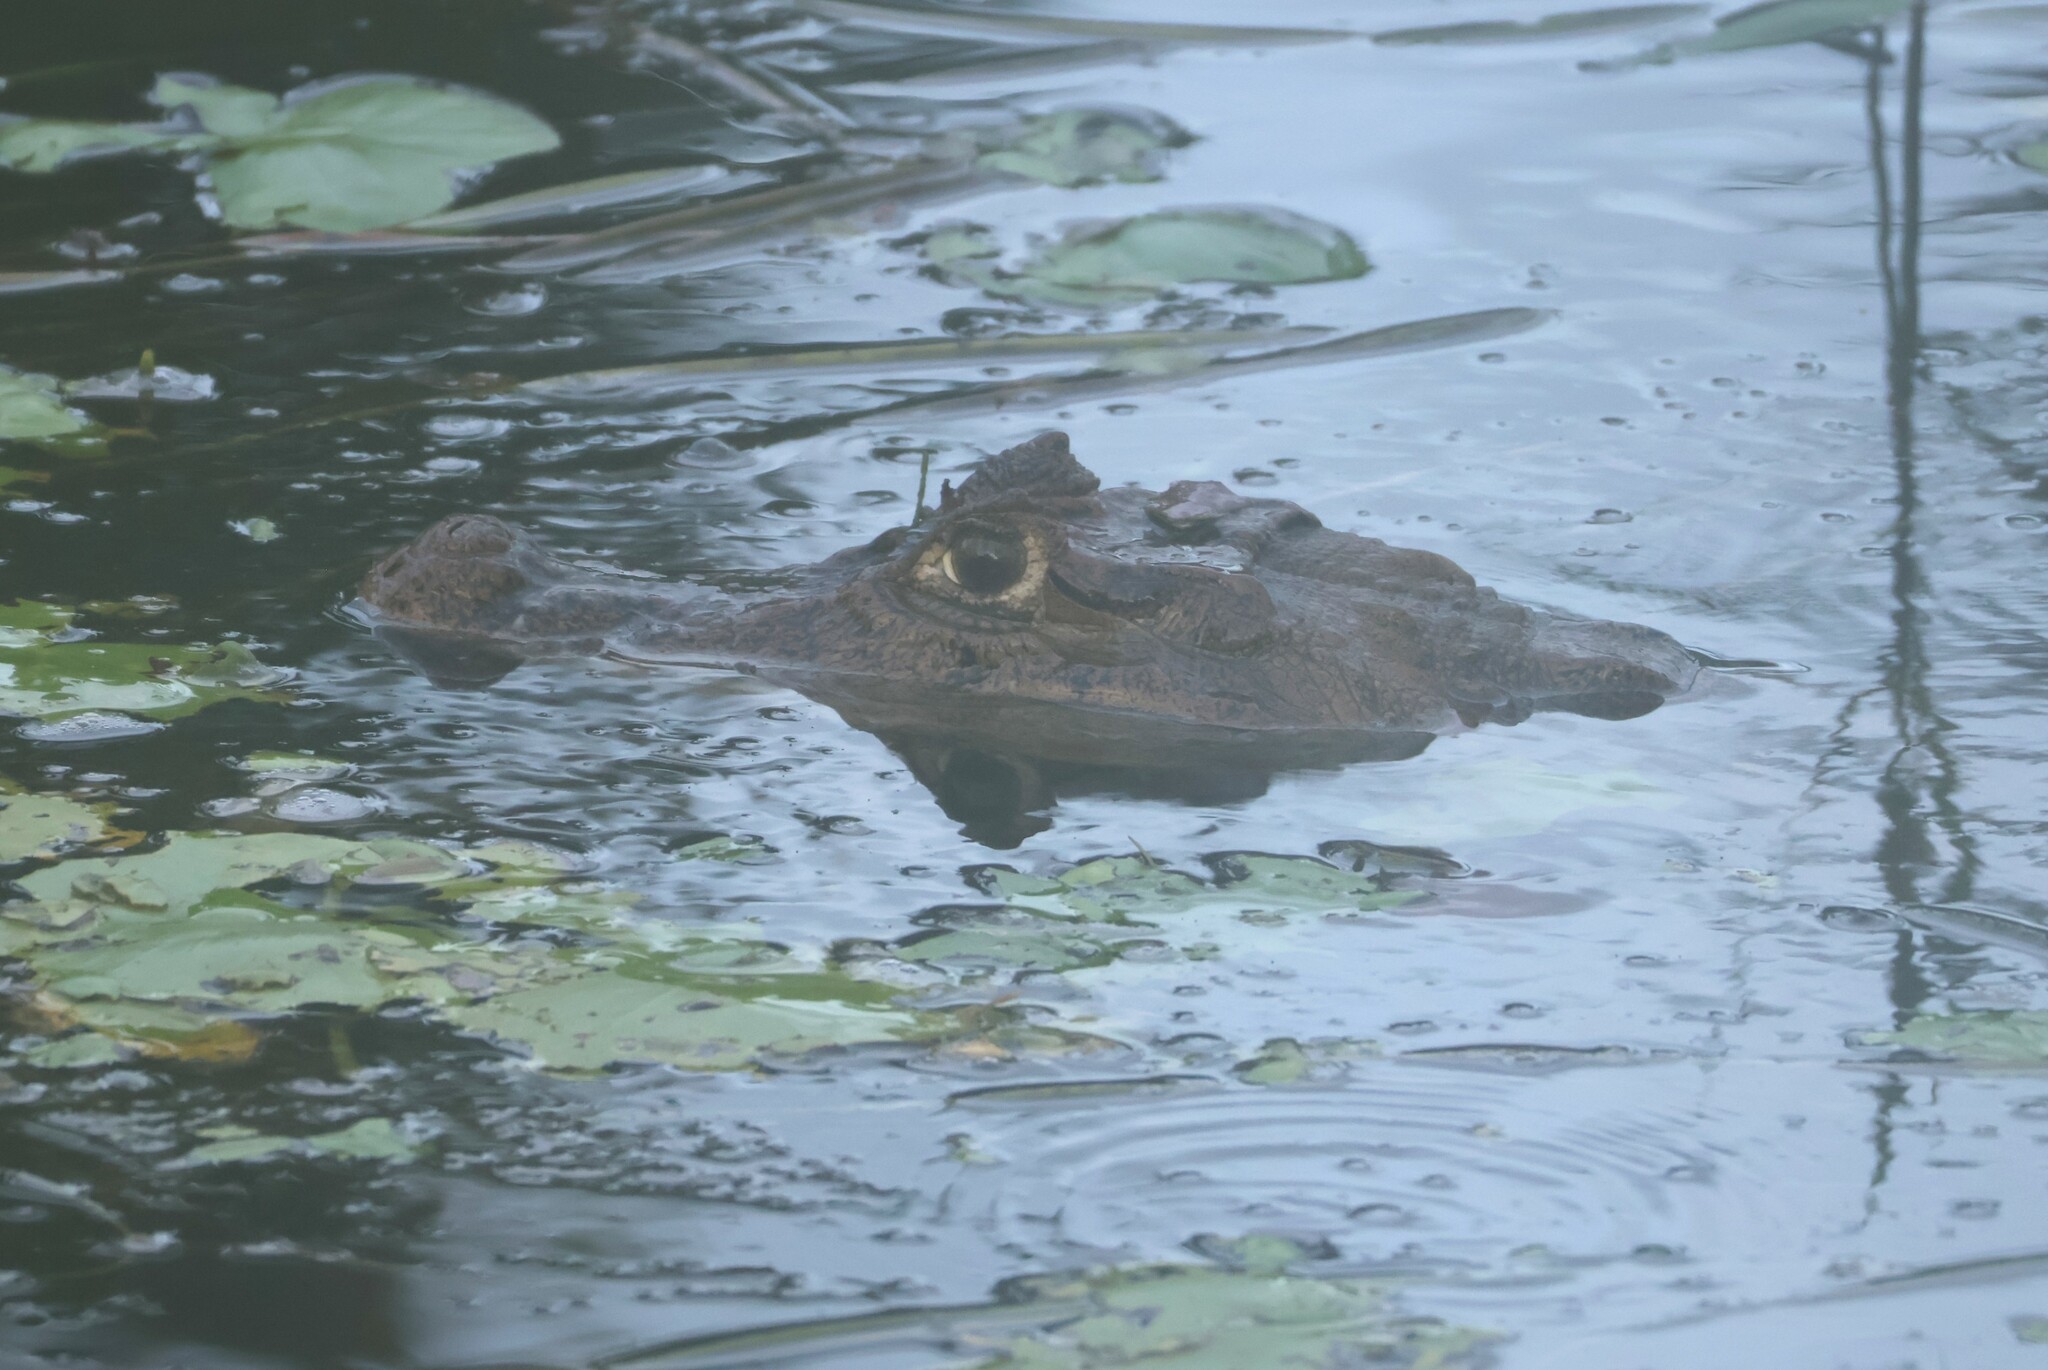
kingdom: Animalia
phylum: Chordata
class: Crocodylia
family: Alligatoridae
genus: Caiman
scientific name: Caiman crocodilus
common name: Common caiman
